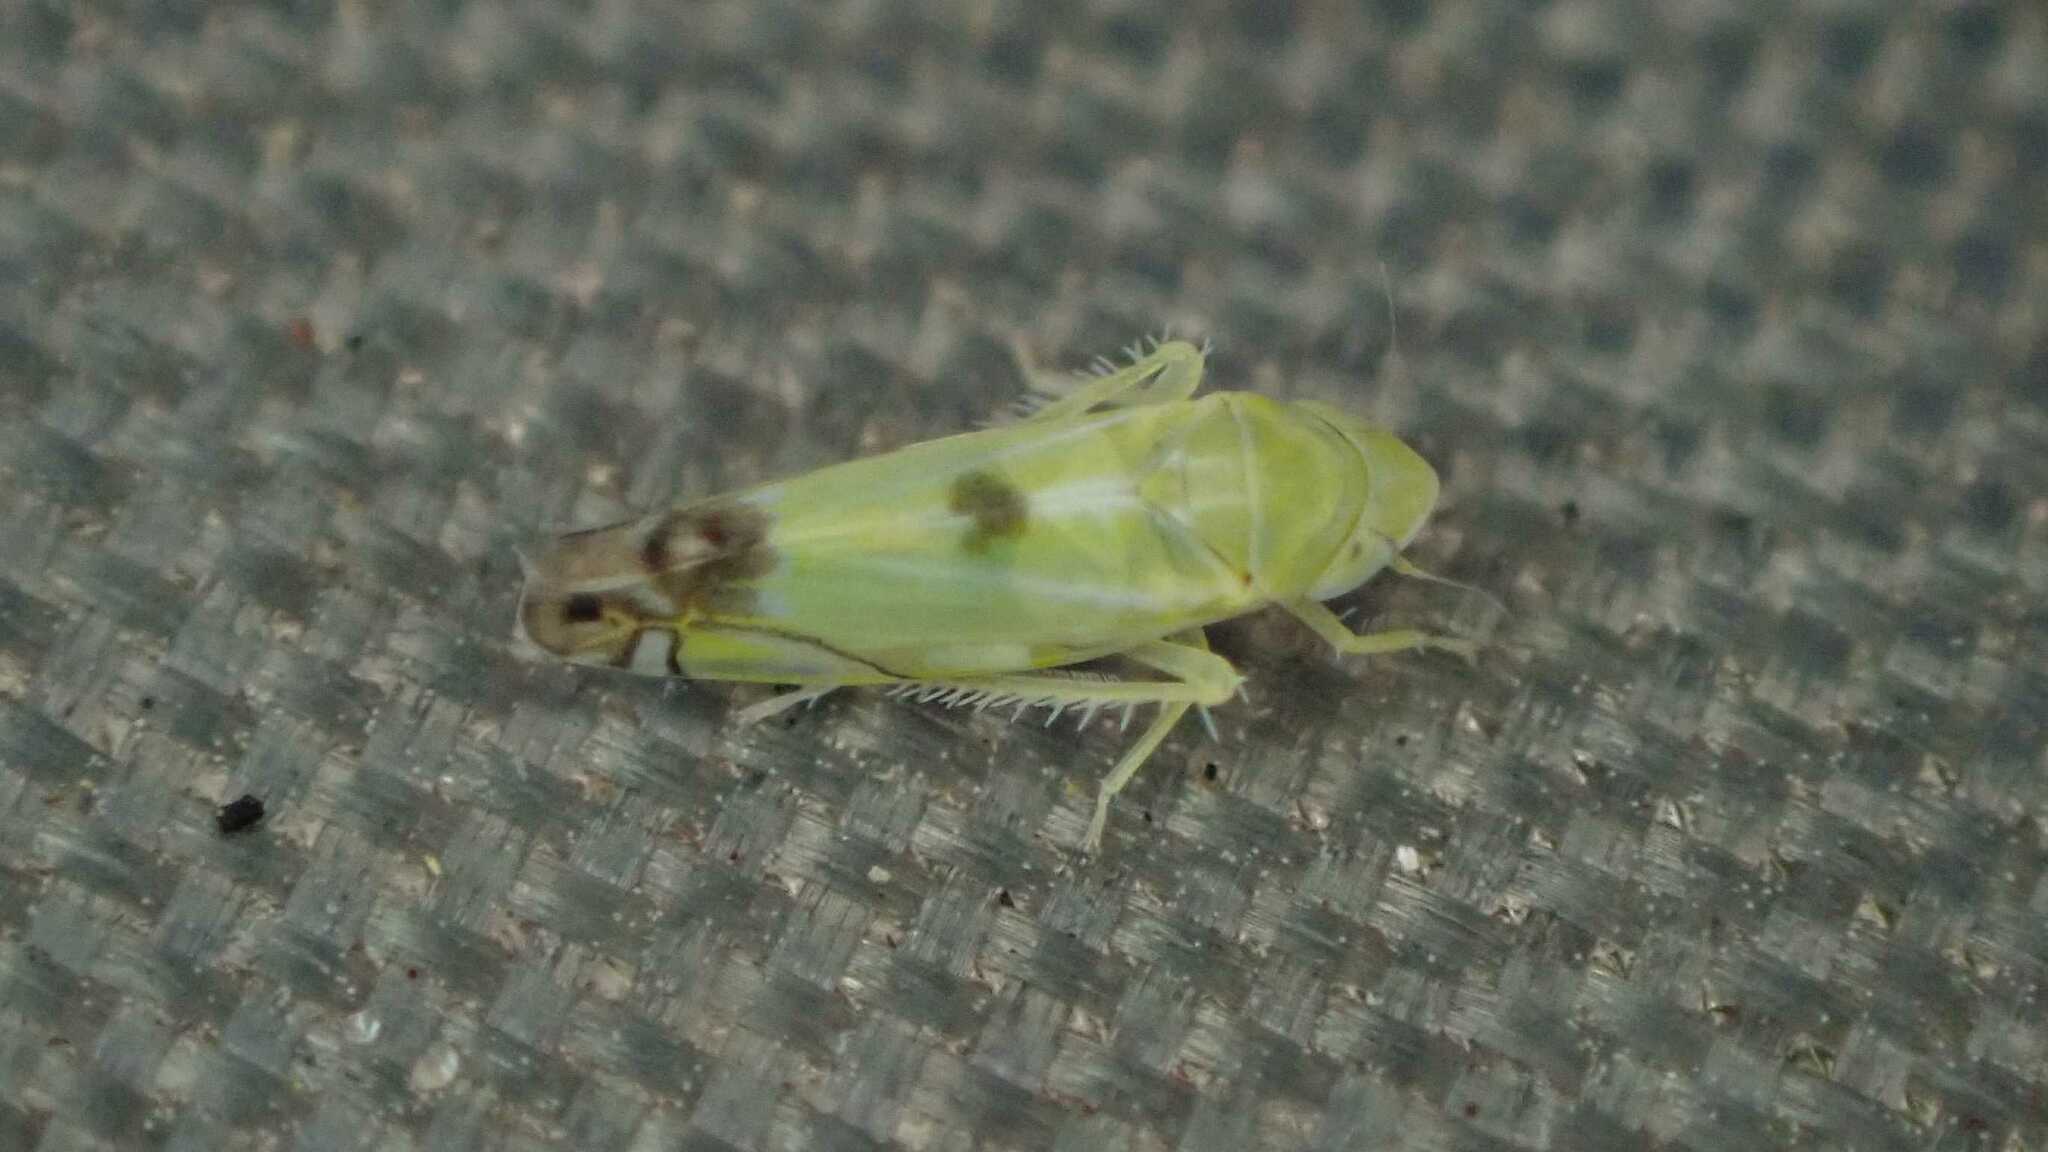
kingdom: Animalia
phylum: Arthropoda
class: Insecta
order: Hemiptera
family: Cicadellidae
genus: Zyginella
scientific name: Zyginella pulchra
